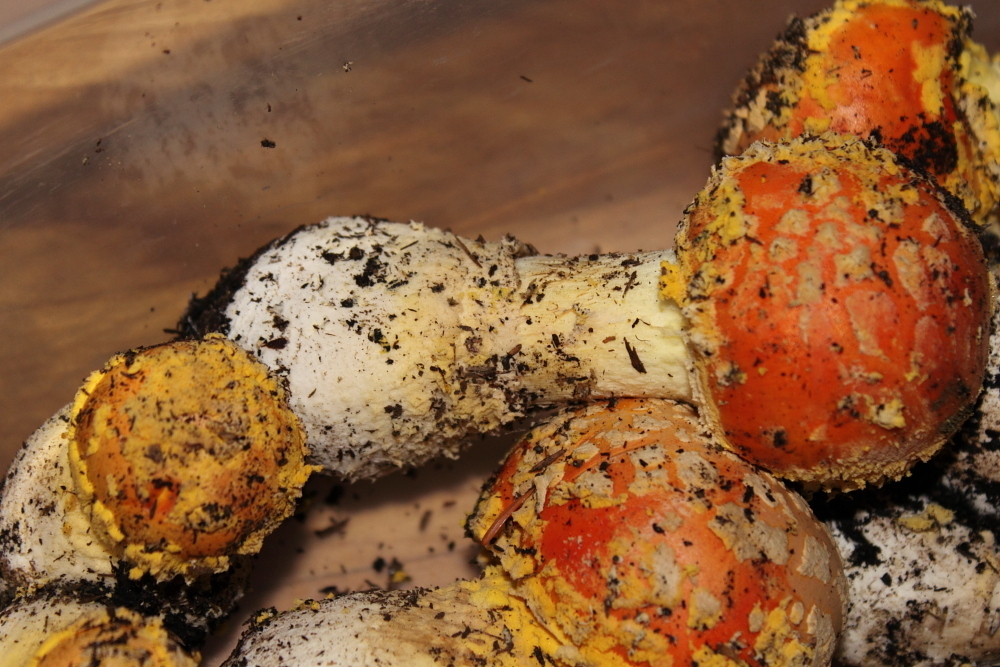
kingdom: Fungi
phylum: Basidiomycota
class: Agaricomycetes
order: Agaricales
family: Amanitaceae
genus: Amanita
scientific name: Amanita wellsii
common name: Salmon amanita
